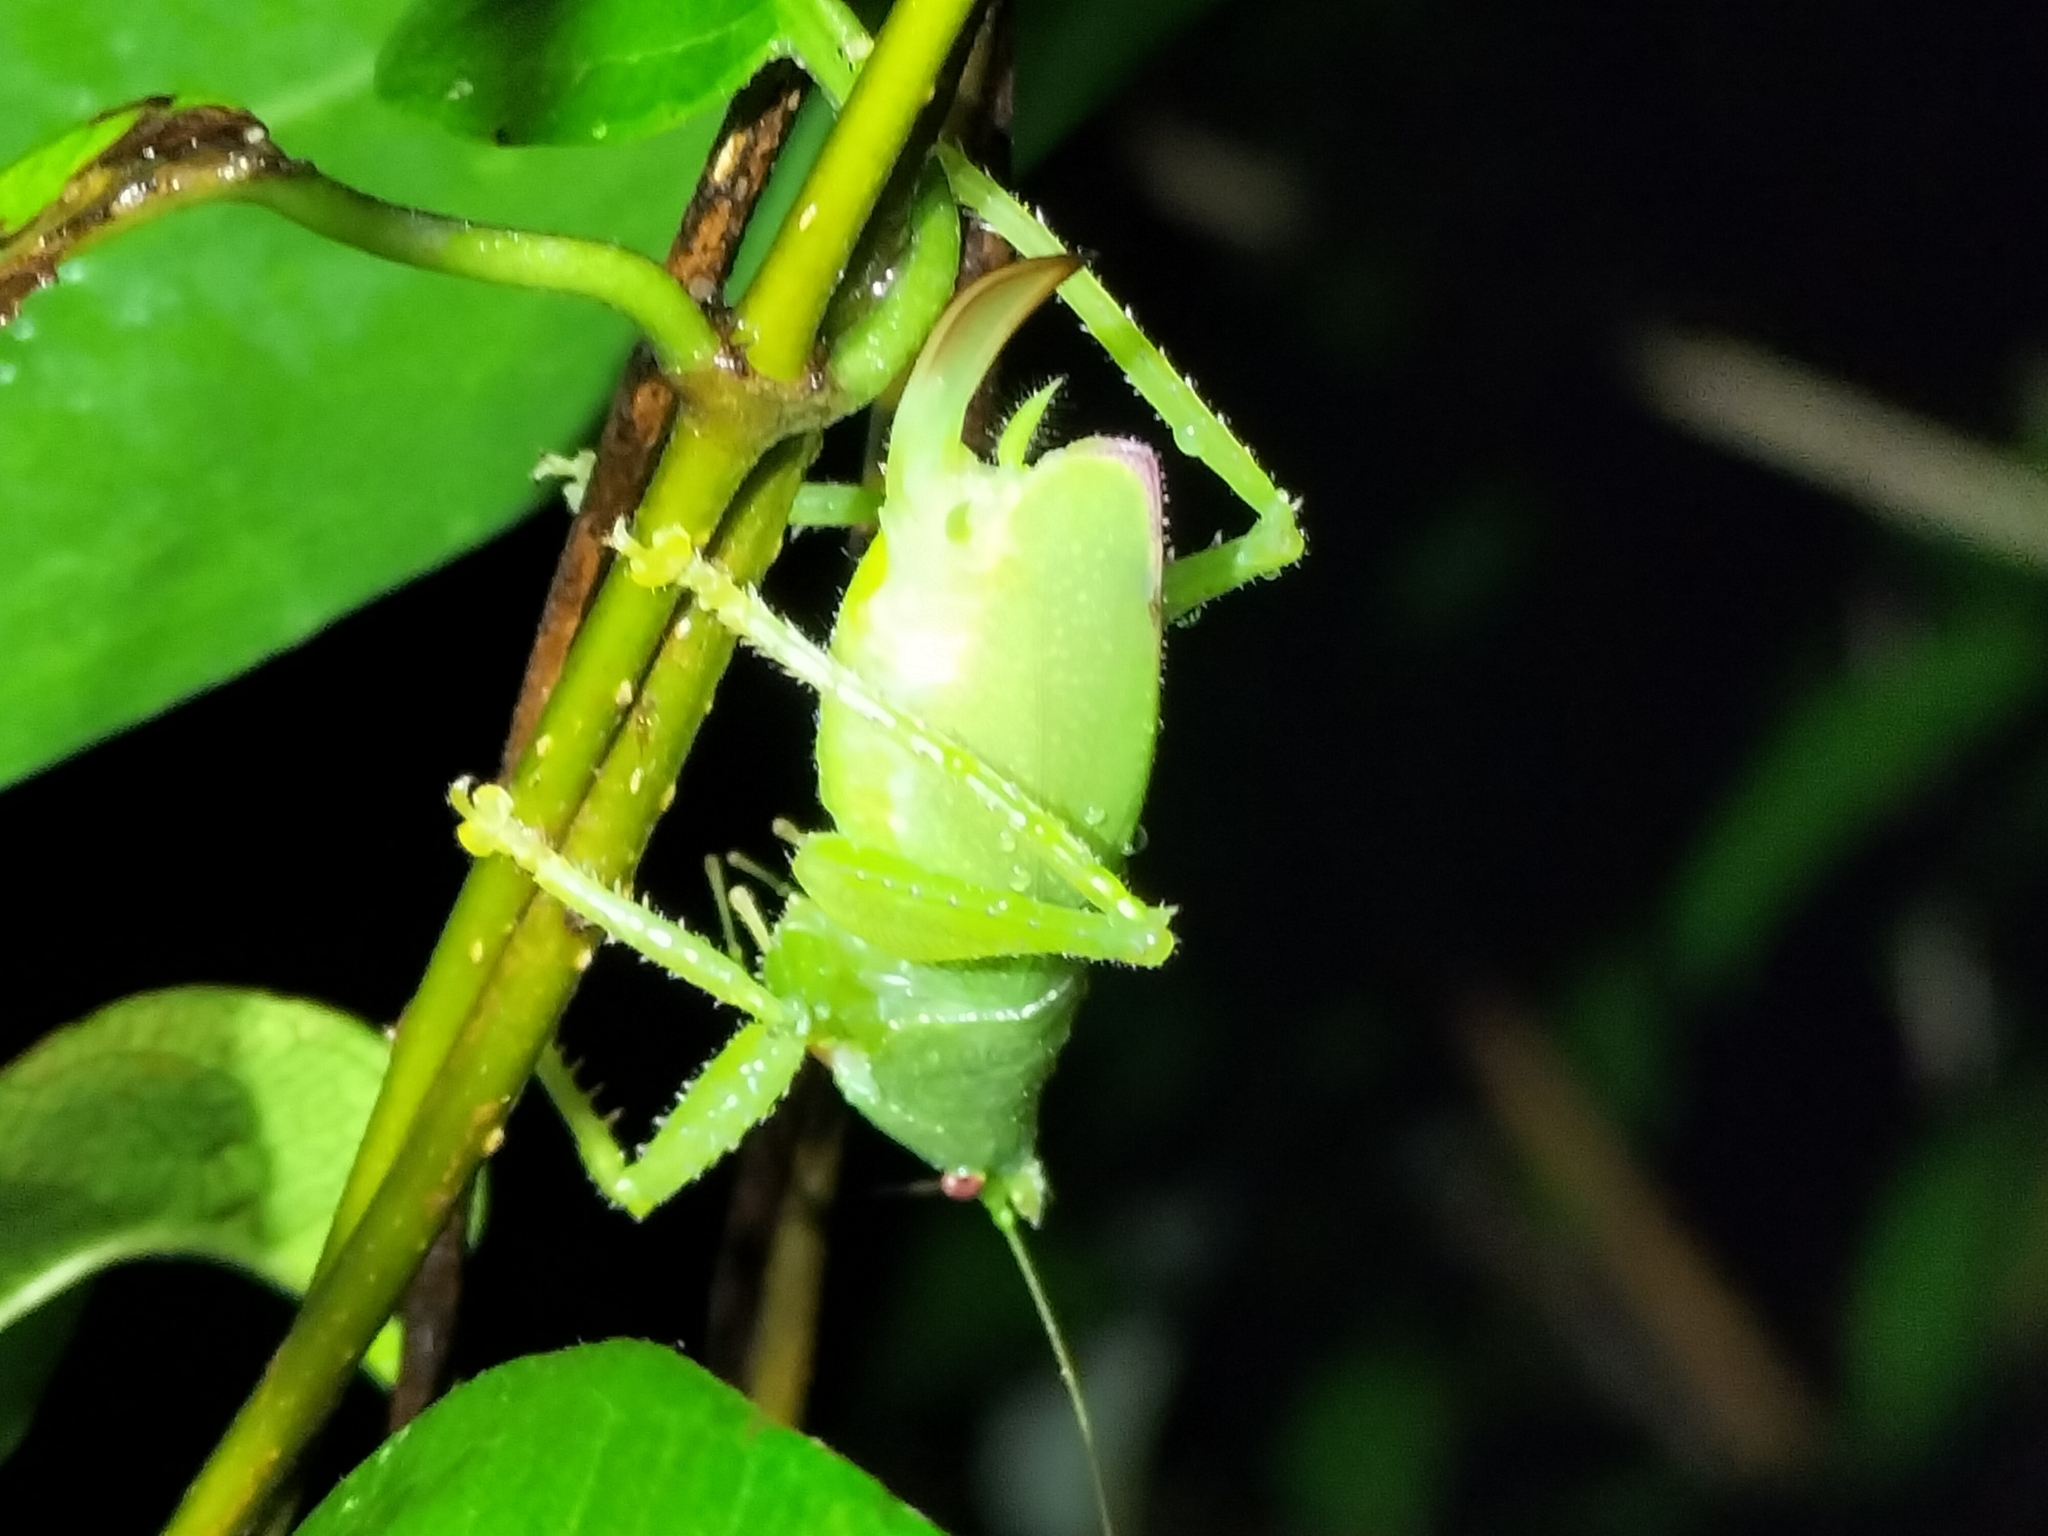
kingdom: Animalia
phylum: Arthropoda
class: Insecta
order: Orthoptera
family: Tettigoniidae
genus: Emeraldagraecia
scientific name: Emeraldagraecia munggarifrons
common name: Pink-faced emerald
